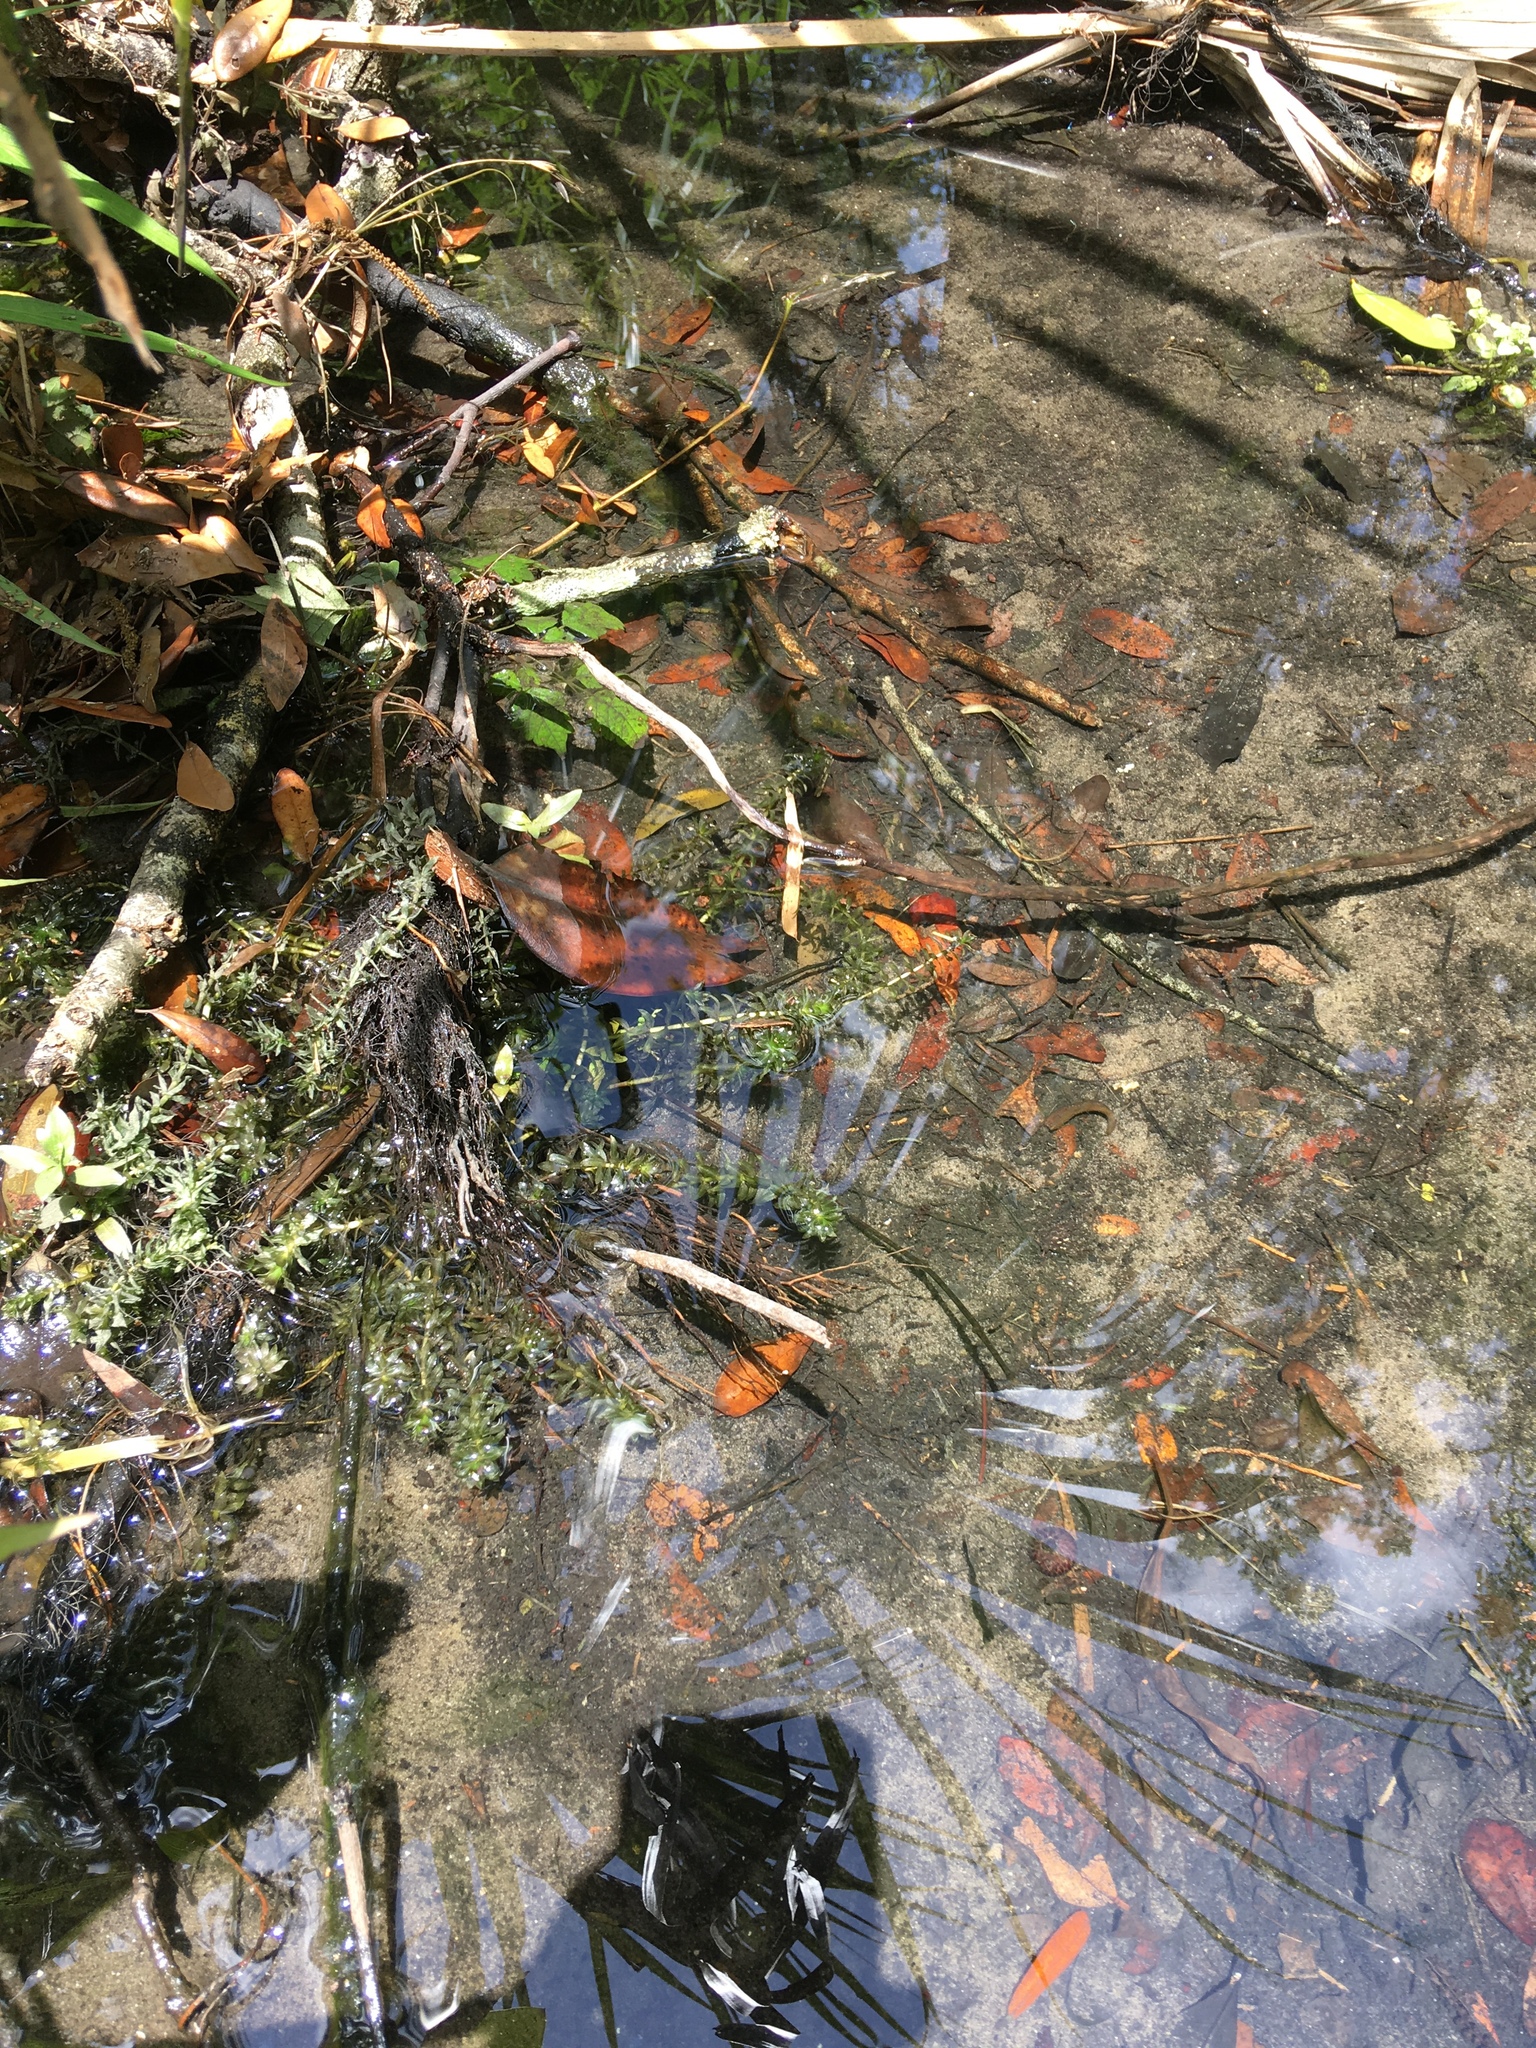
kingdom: Plantae
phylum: Tracheophyta
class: Liliopsida
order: Alismatales
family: Hydrocharitaceae
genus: Hydrilla
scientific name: Hydrilla verticillata
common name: Florida-elodea
